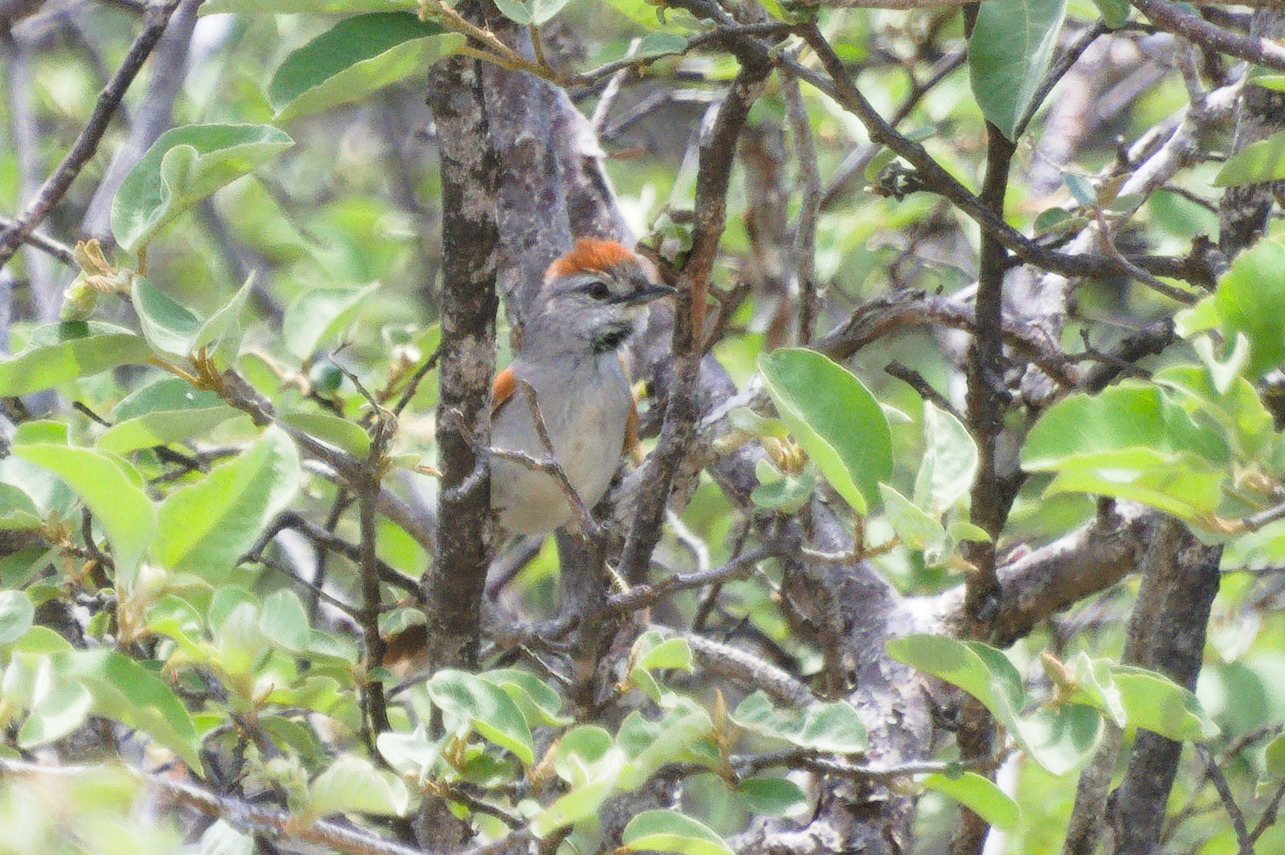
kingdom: Animalia
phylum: Chordata
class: Aves
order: Passeriformes
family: Furnariidae
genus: Synallaxis
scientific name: Synallaxis albescens
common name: Pale-breasted spinetail
